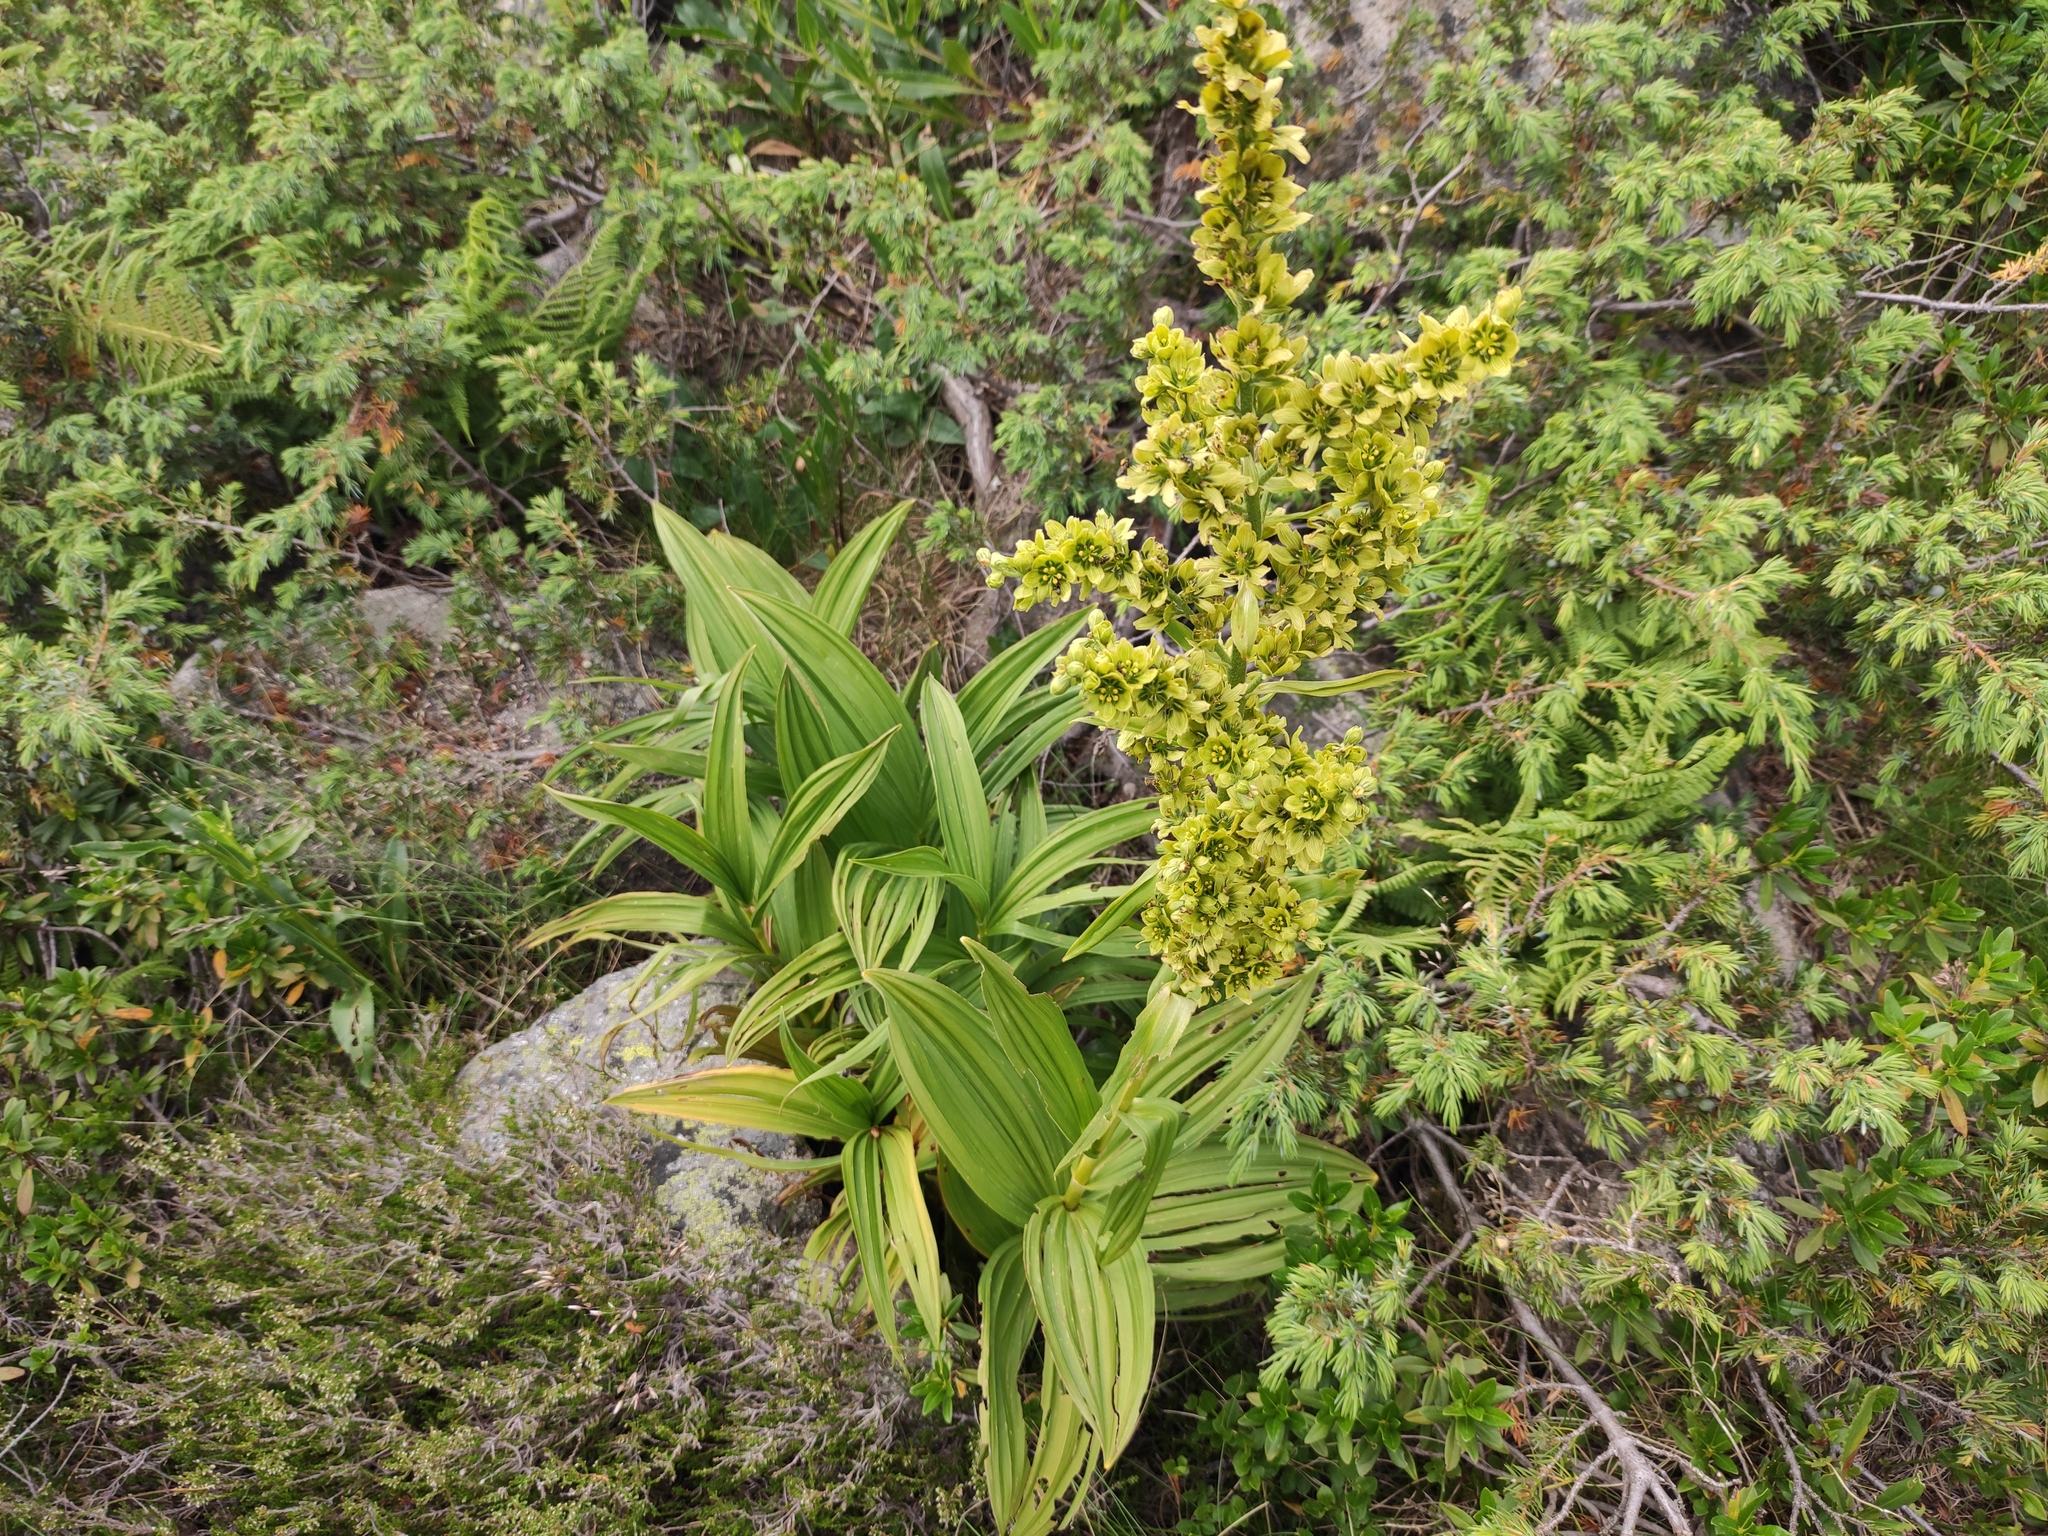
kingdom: Plantae
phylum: Tracheophyta
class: Liliopsida
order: Liliales
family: Melanthiaceae
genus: Veratrum
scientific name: Veratrum album
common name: White veratrum
